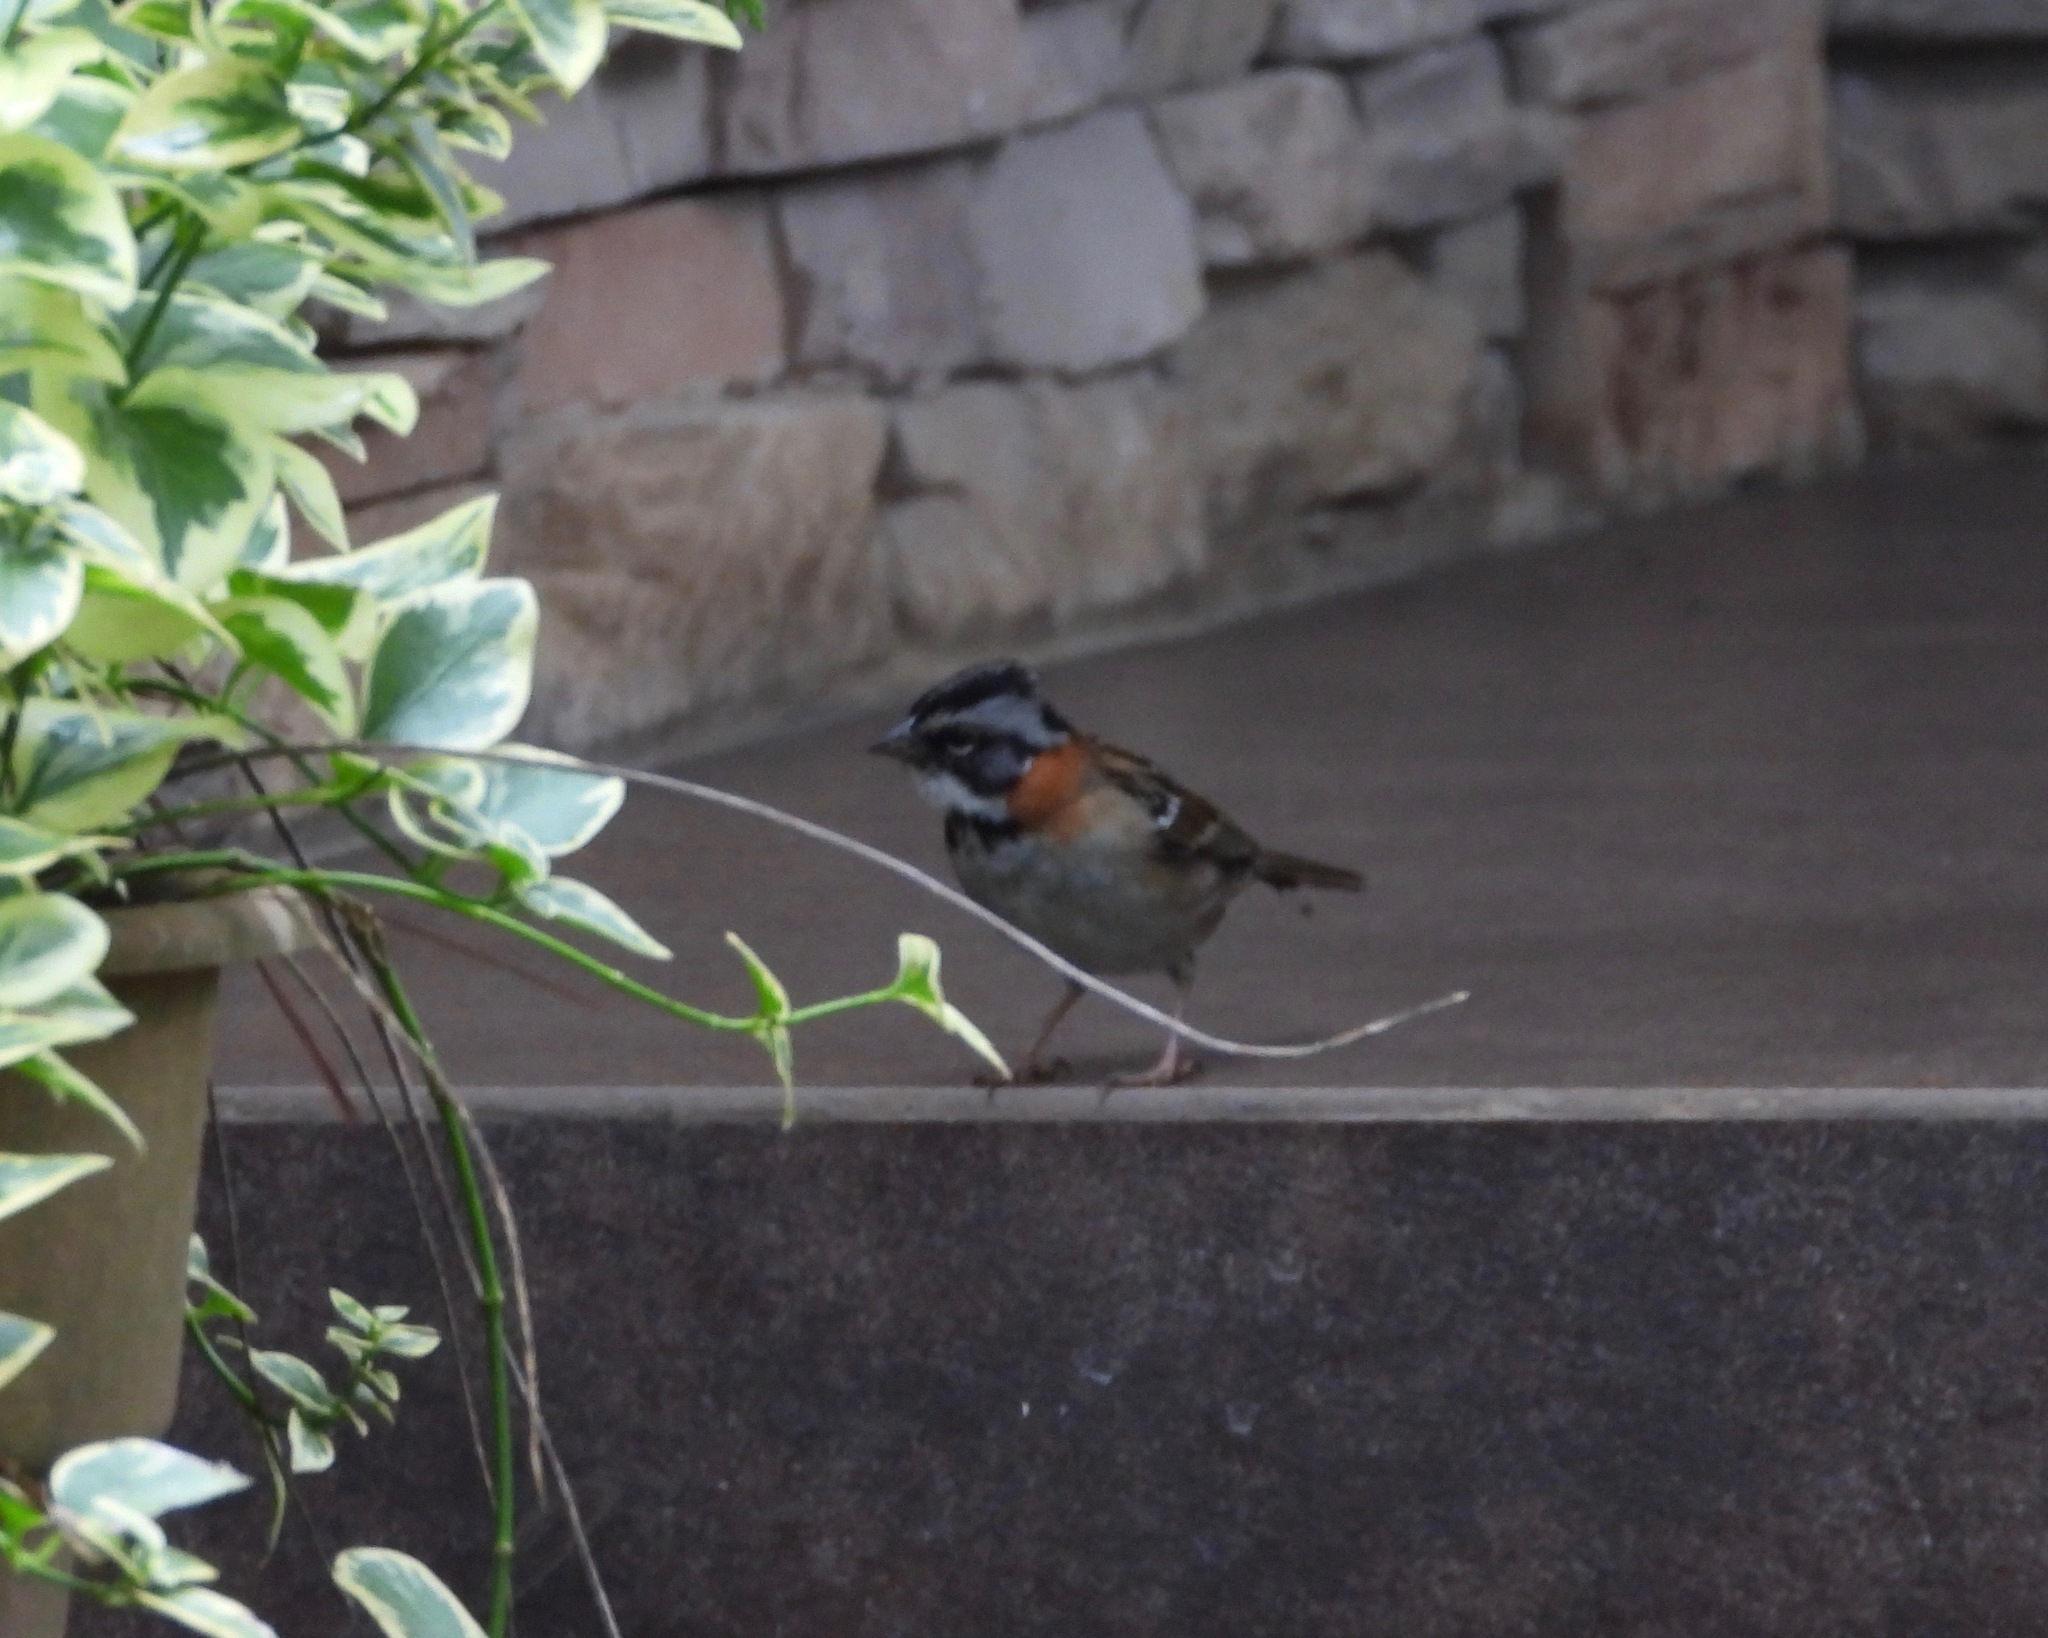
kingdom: Animalia
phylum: Chordata
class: Aves
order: Passeriformes
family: Passerellidae
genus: Zonotrichia
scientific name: Zonotrichia capensis
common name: Rufous-collared sparrow
